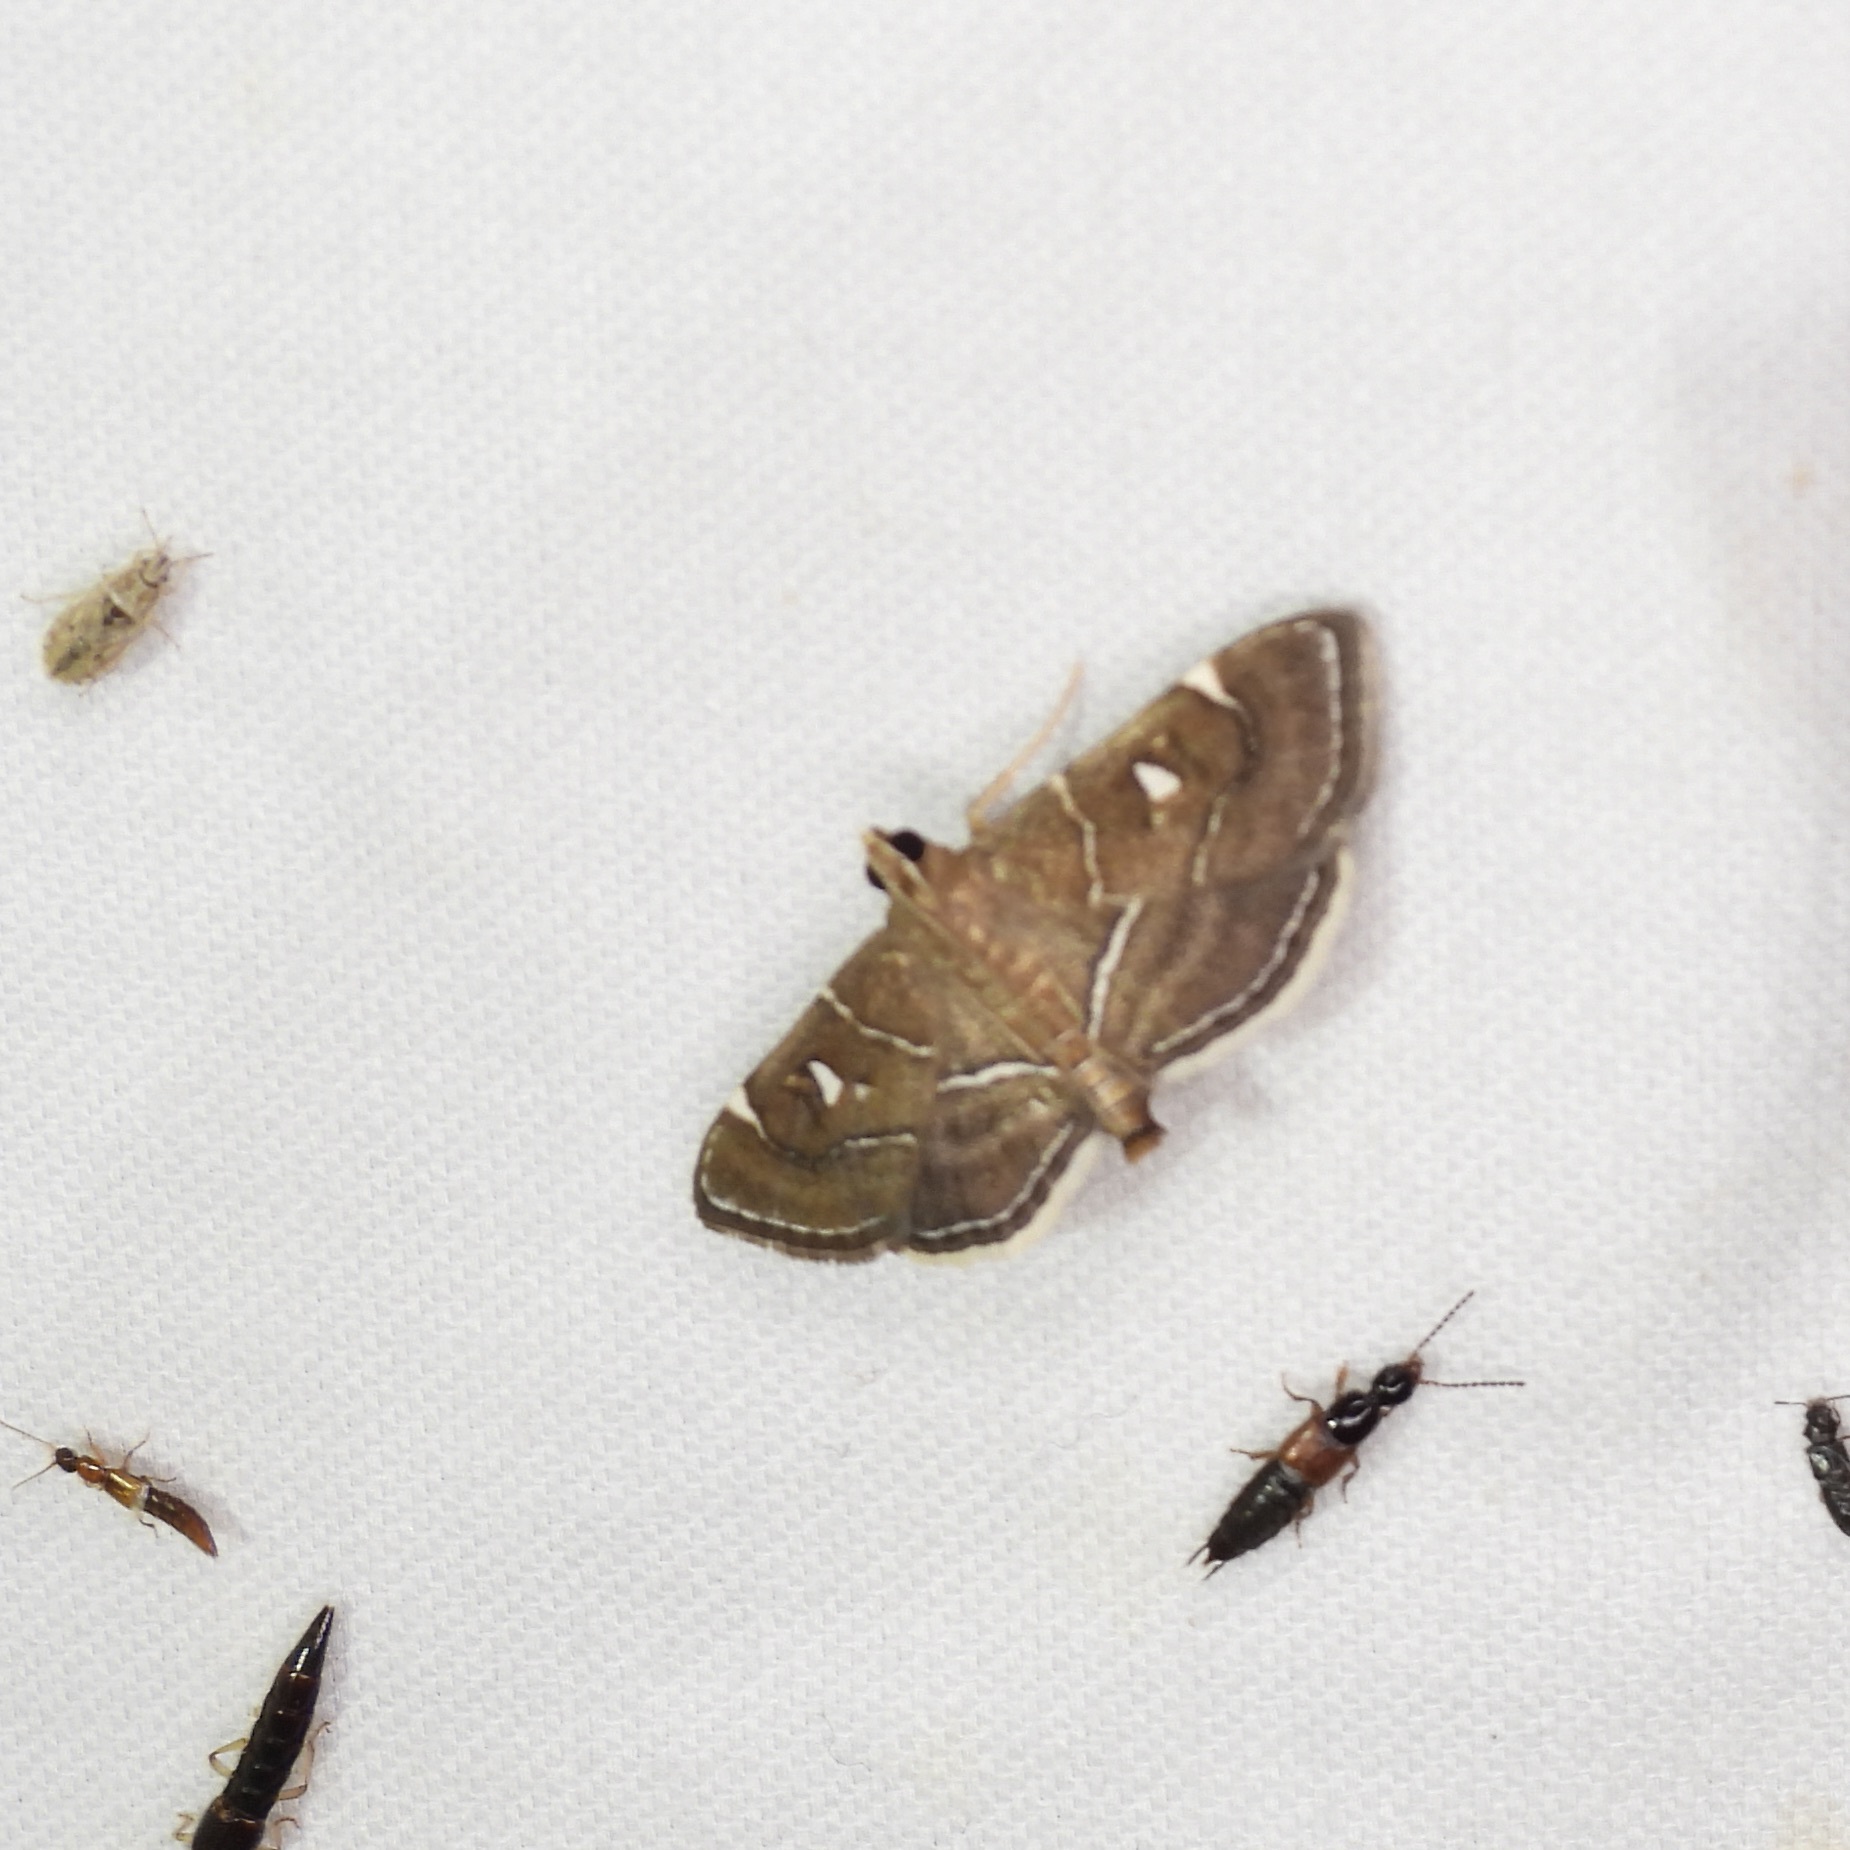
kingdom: Animalia
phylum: Arthropoda
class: Insecta
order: Lepidoptera
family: Crambidae
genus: Lamprosema
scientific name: Lamprosema victoriae
